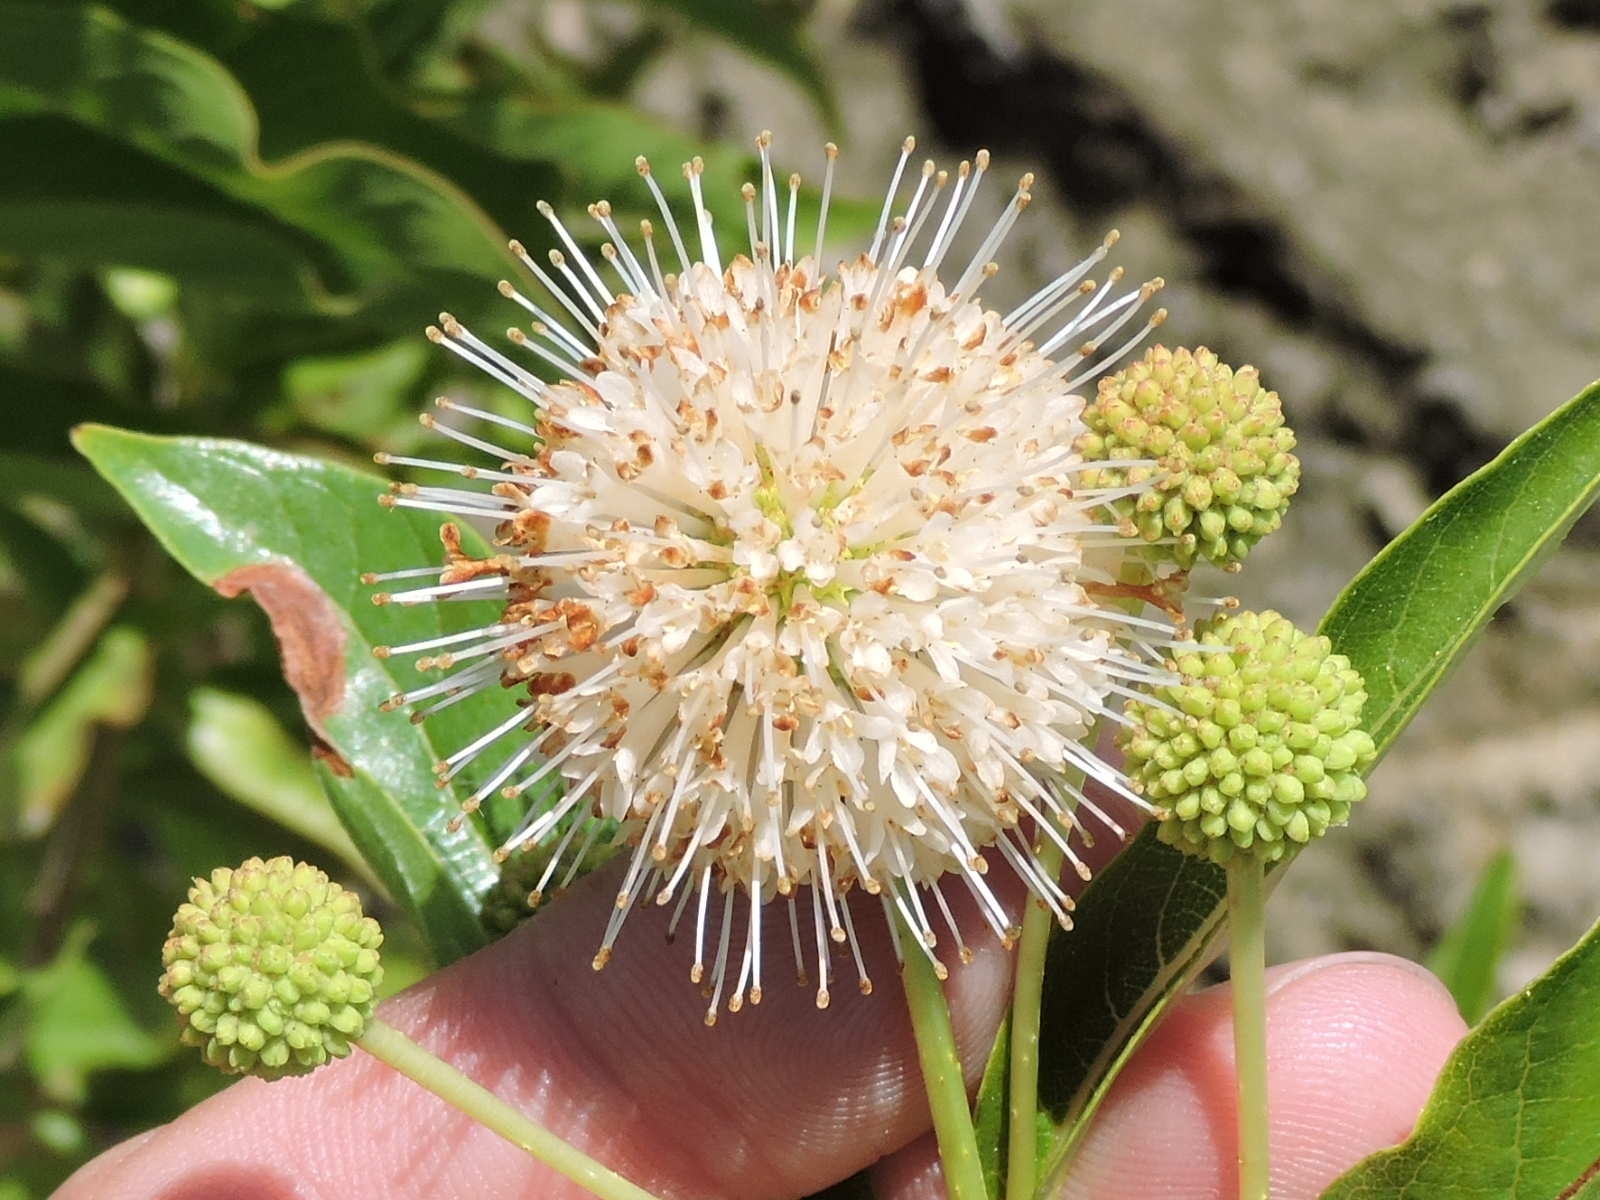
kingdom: Plantae
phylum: Tracheophyta
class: Magnoliopsida
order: Gentianales
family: Rubiaceae
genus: Cephalanthus
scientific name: Cephalanthus occidentalis
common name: Button-willow
